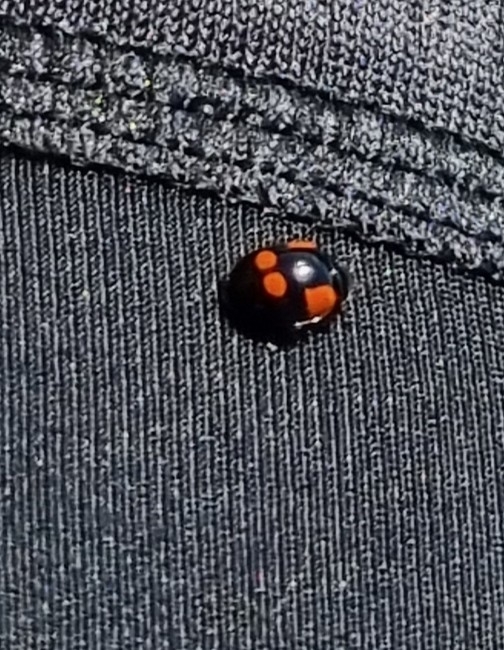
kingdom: Animalia
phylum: Arthropoda
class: Insecta
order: Coleoptera
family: Coccinellidae
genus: Adalia
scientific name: Adalia bipunctata
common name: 2-spot ladybird
